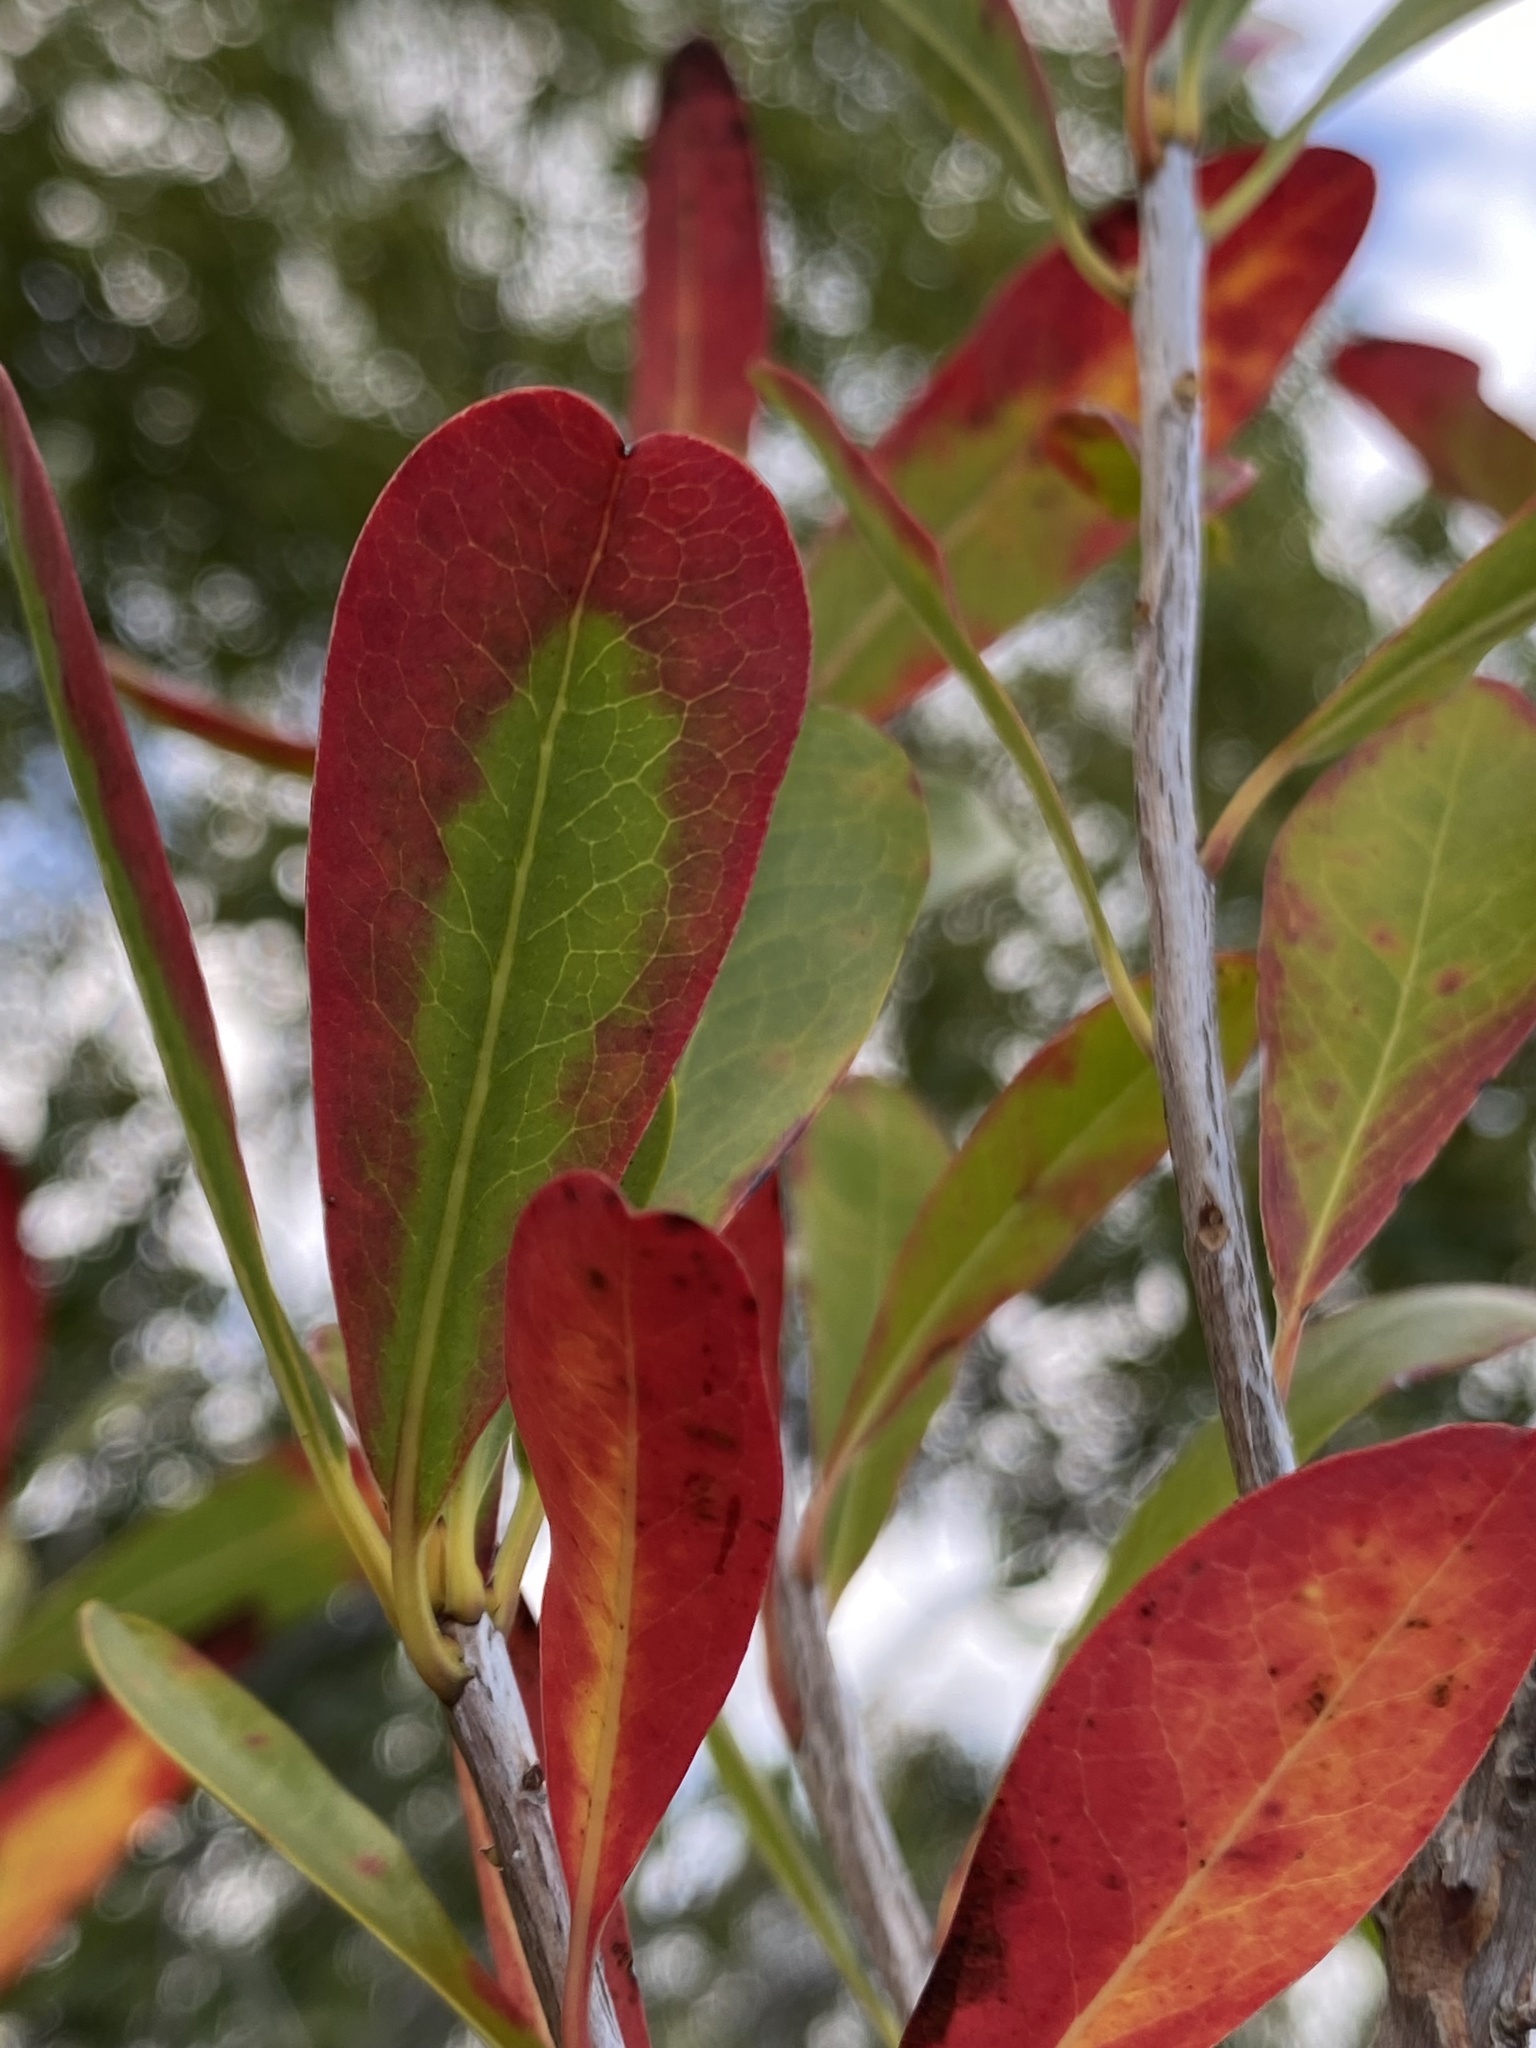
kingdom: Plantae
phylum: Tracheophyta
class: Magnoliopsida
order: Ericales
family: Cyrillaceae
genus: Cyrilla
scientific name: Cyrilla racemiflora
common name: Black titi
